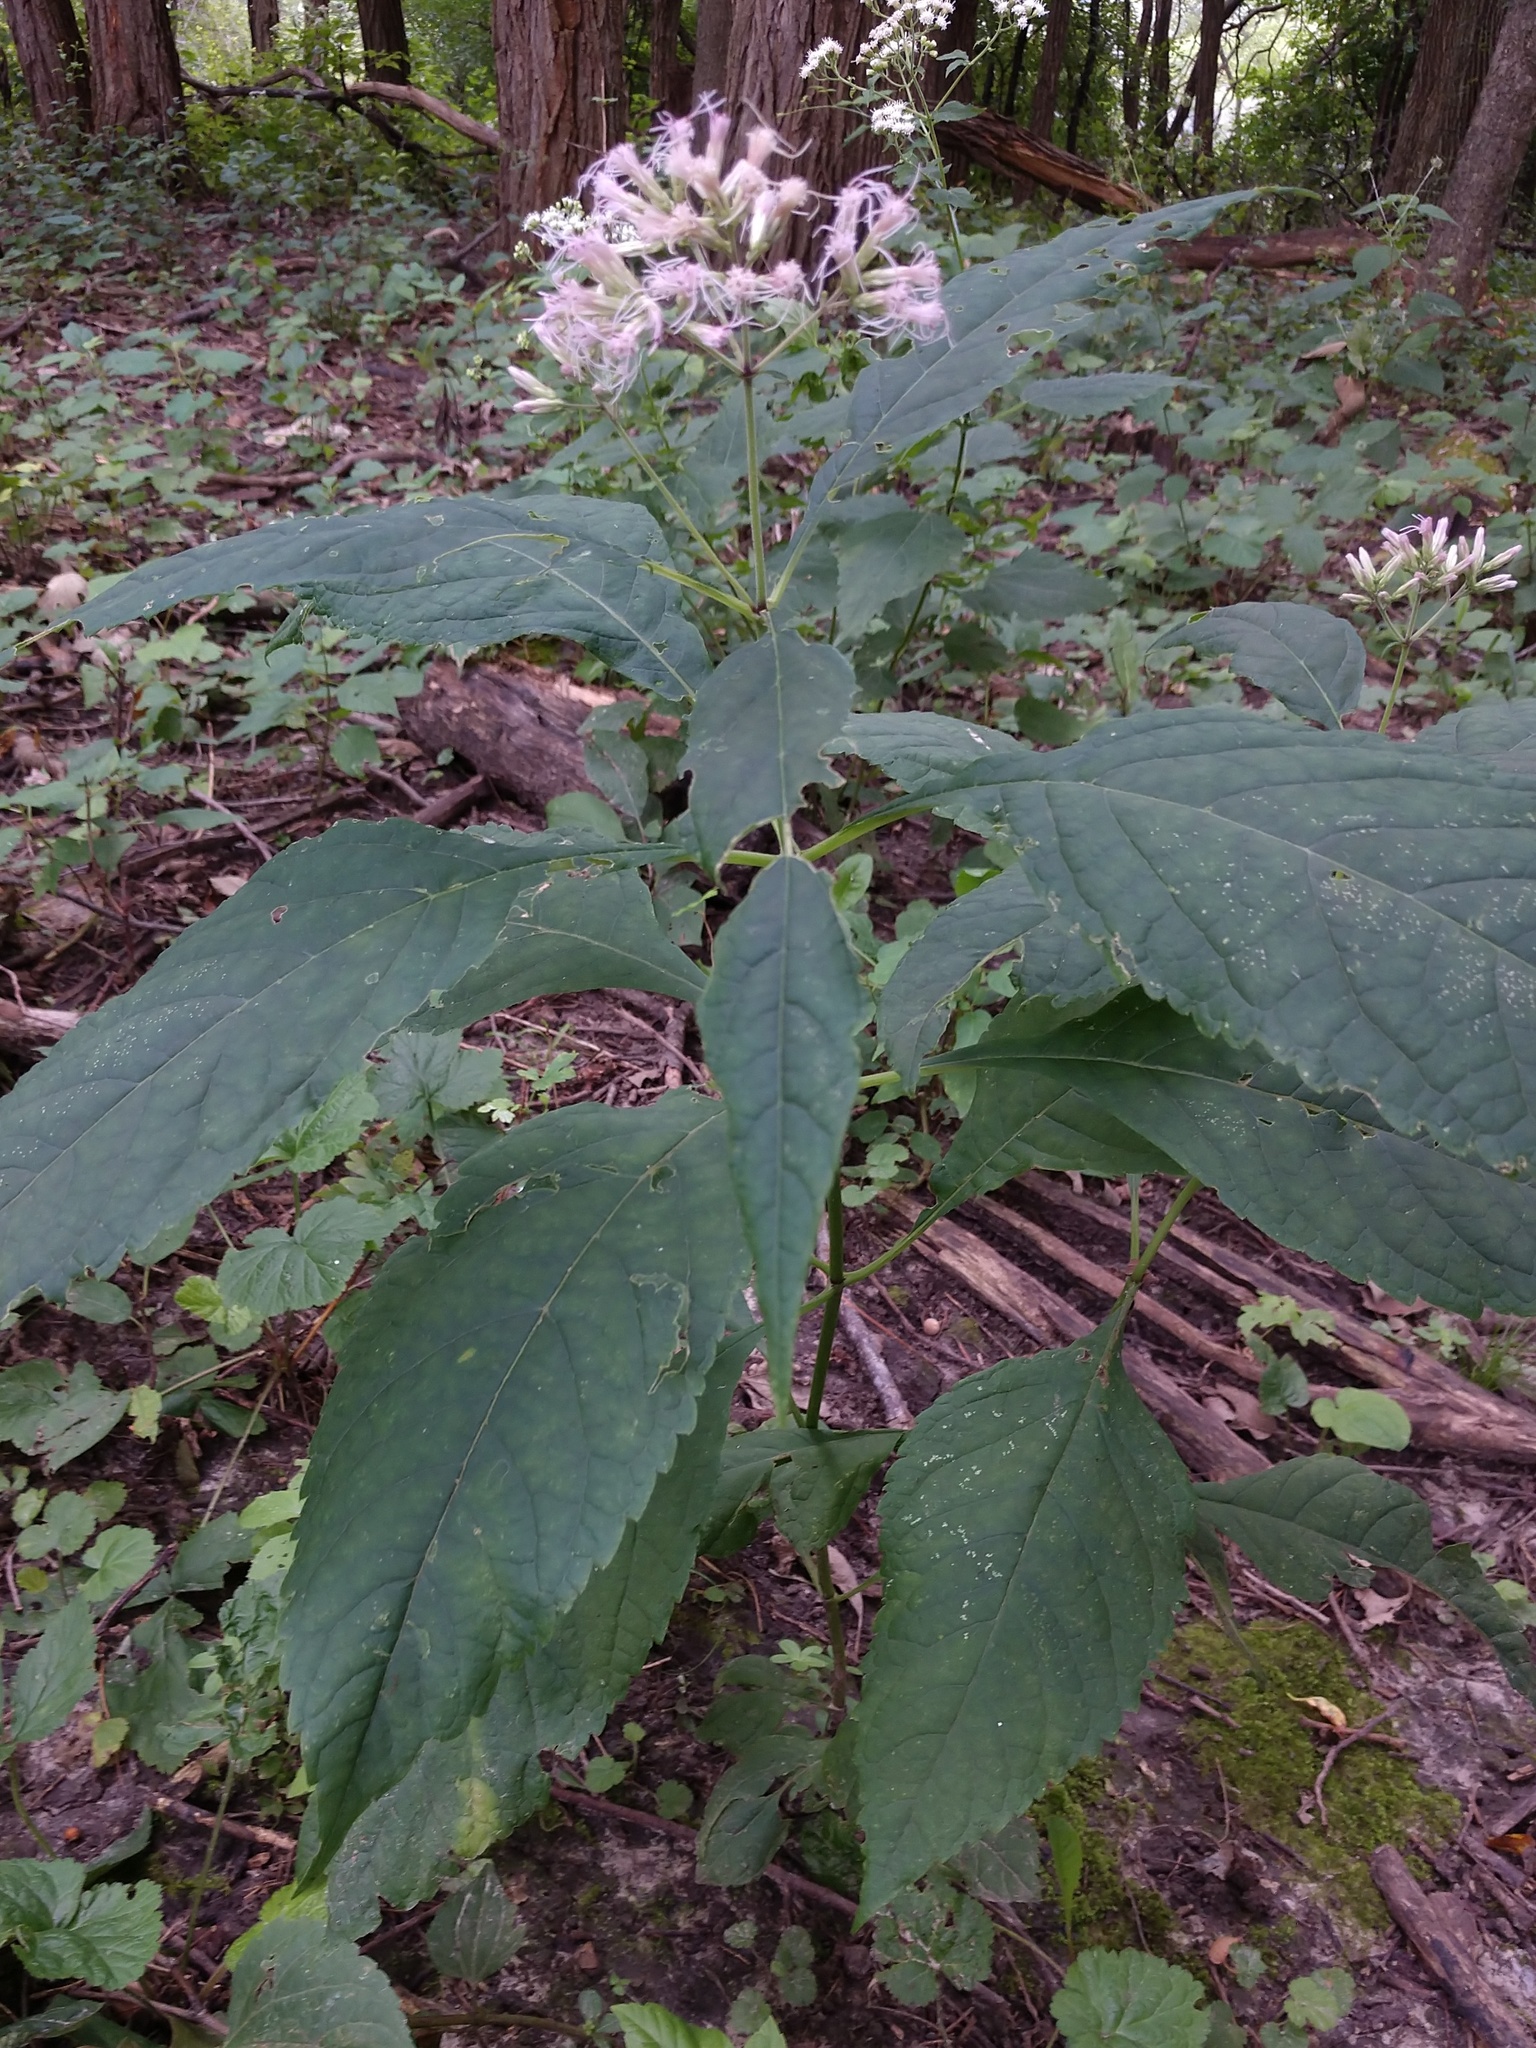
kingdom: Plantae
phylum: Tracheophyta
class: Magnoliopsida
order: Asterales
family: Asteraceae
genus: Eutrochium
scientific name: Eutrochium purpureum
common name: Gravelroot
